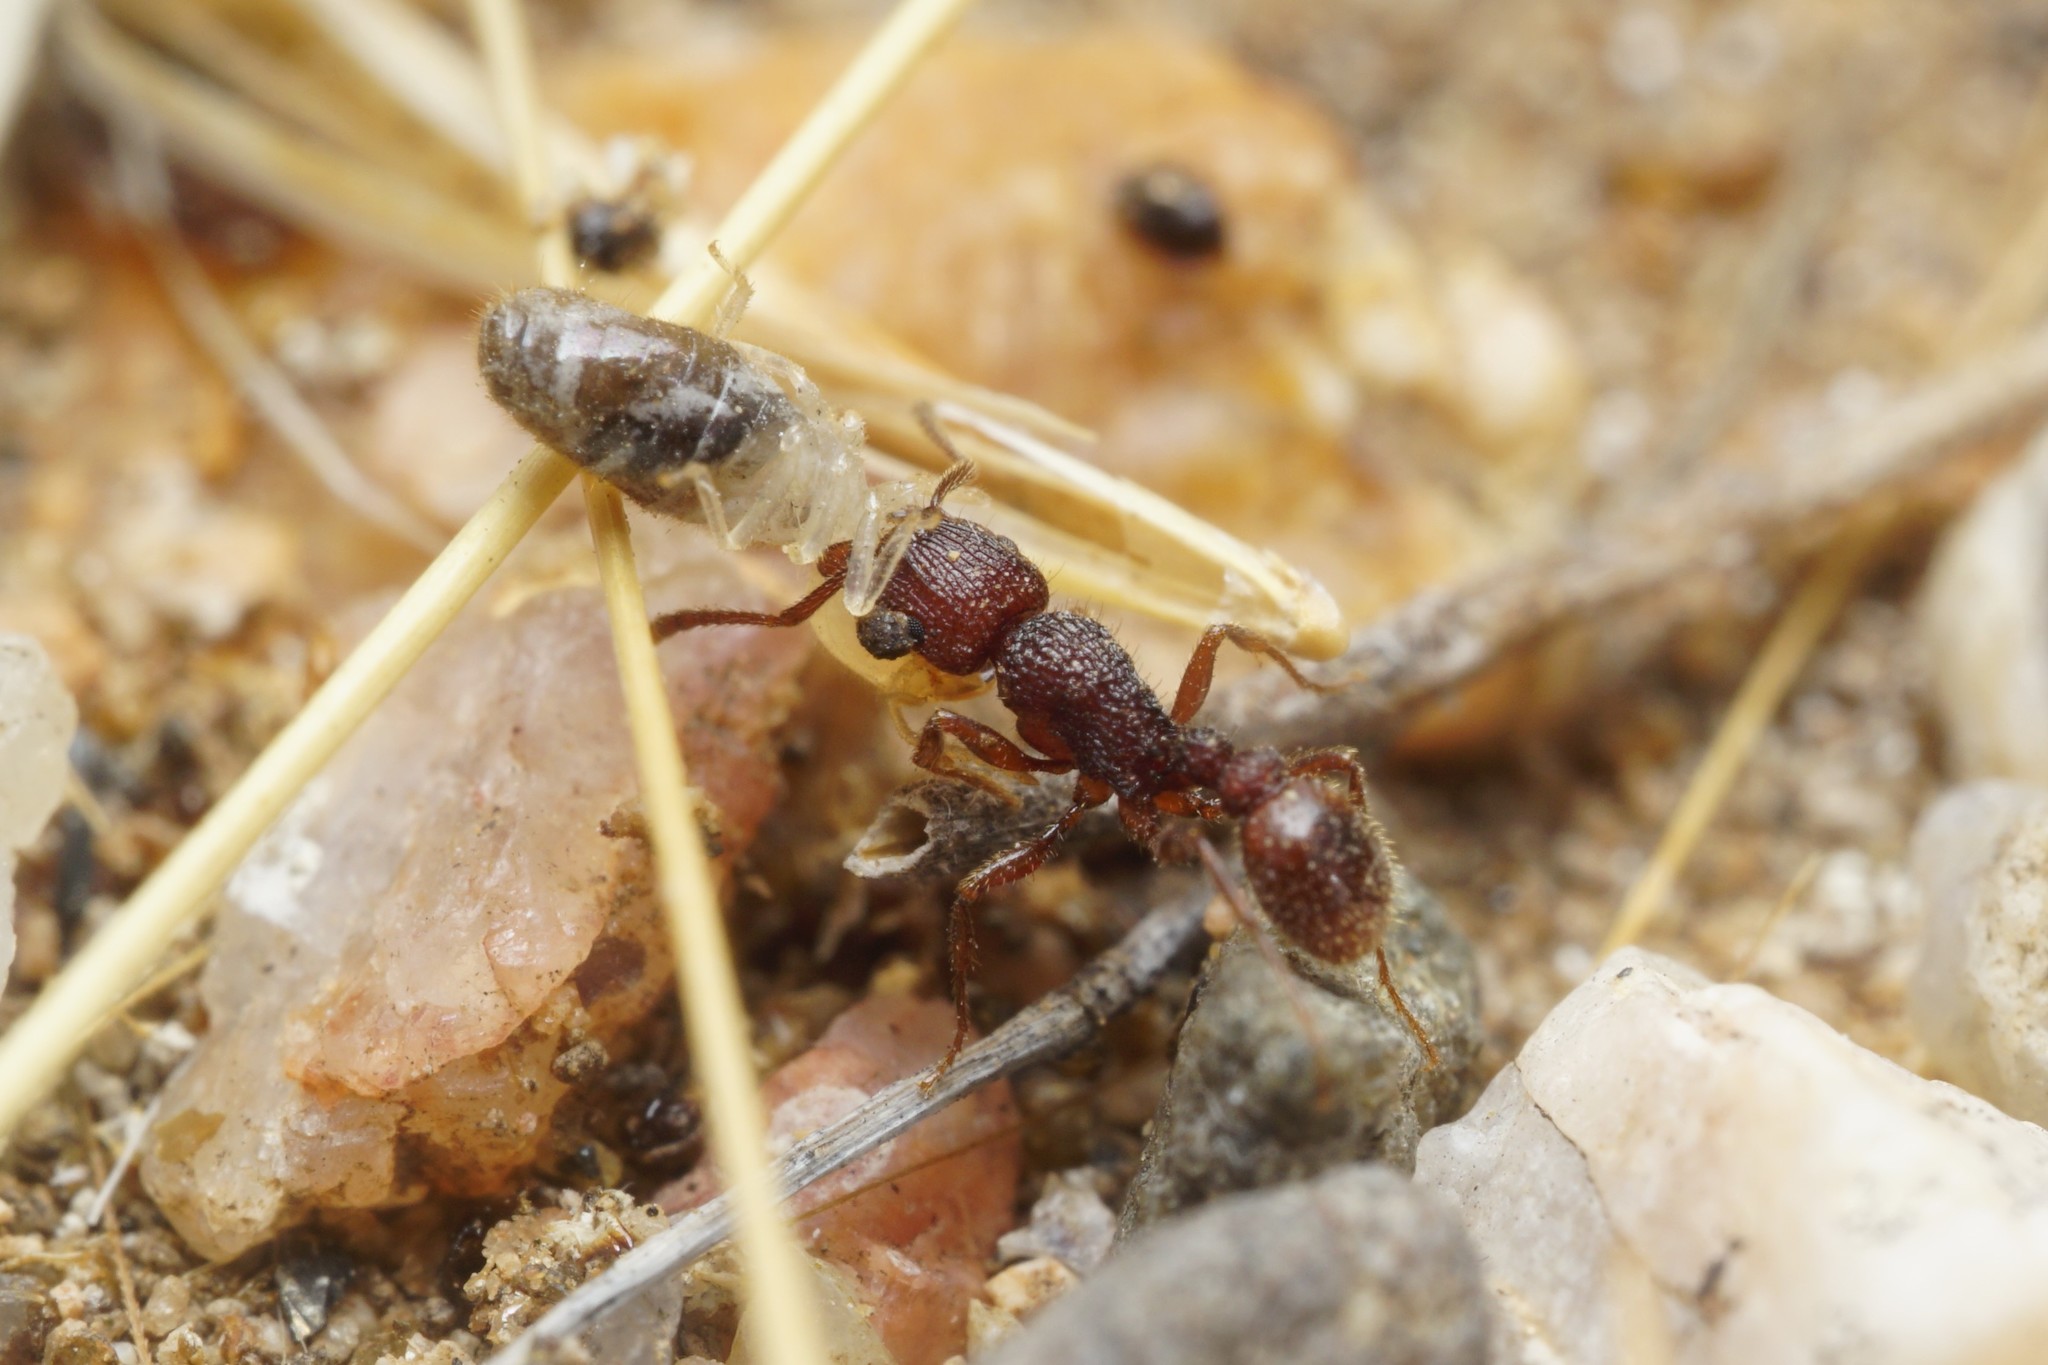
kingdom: Animalia
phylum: Arthropoda
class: Insecta
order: Hymenoptera
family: Formicidae
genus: Tetramorium
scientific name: Tetramorium hispidum
